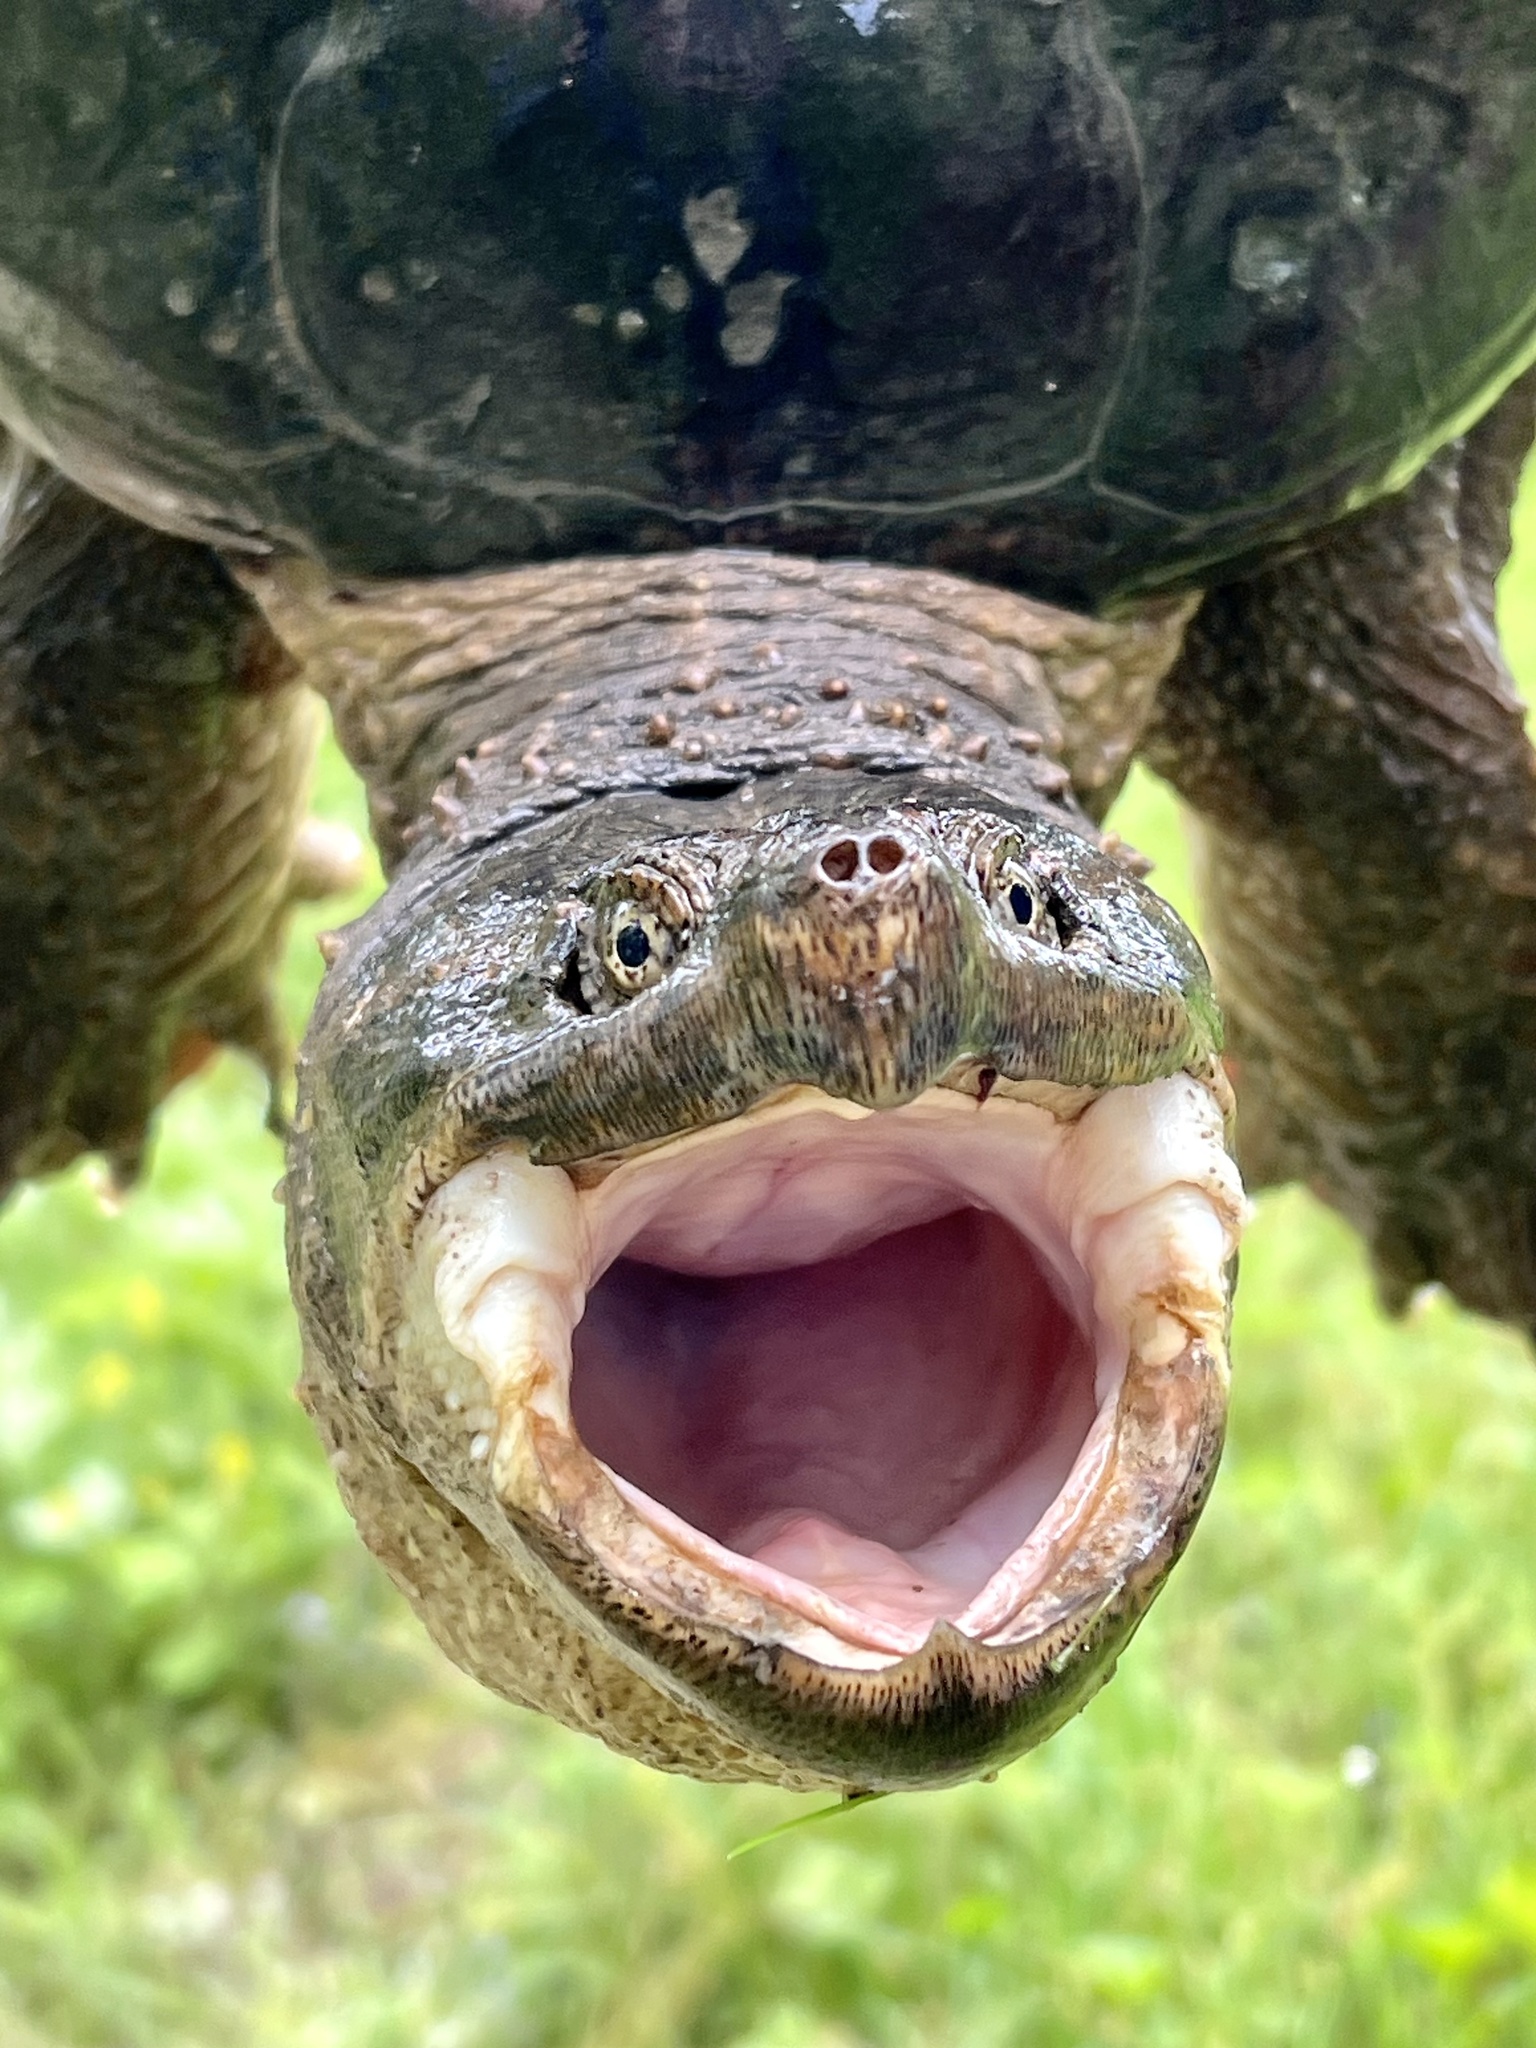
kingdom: Animalia
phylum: Chordata
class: Testudines
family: Chelydridae
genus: Chelydra
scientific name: Chelydra serpentina
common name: Common snapping turtle
